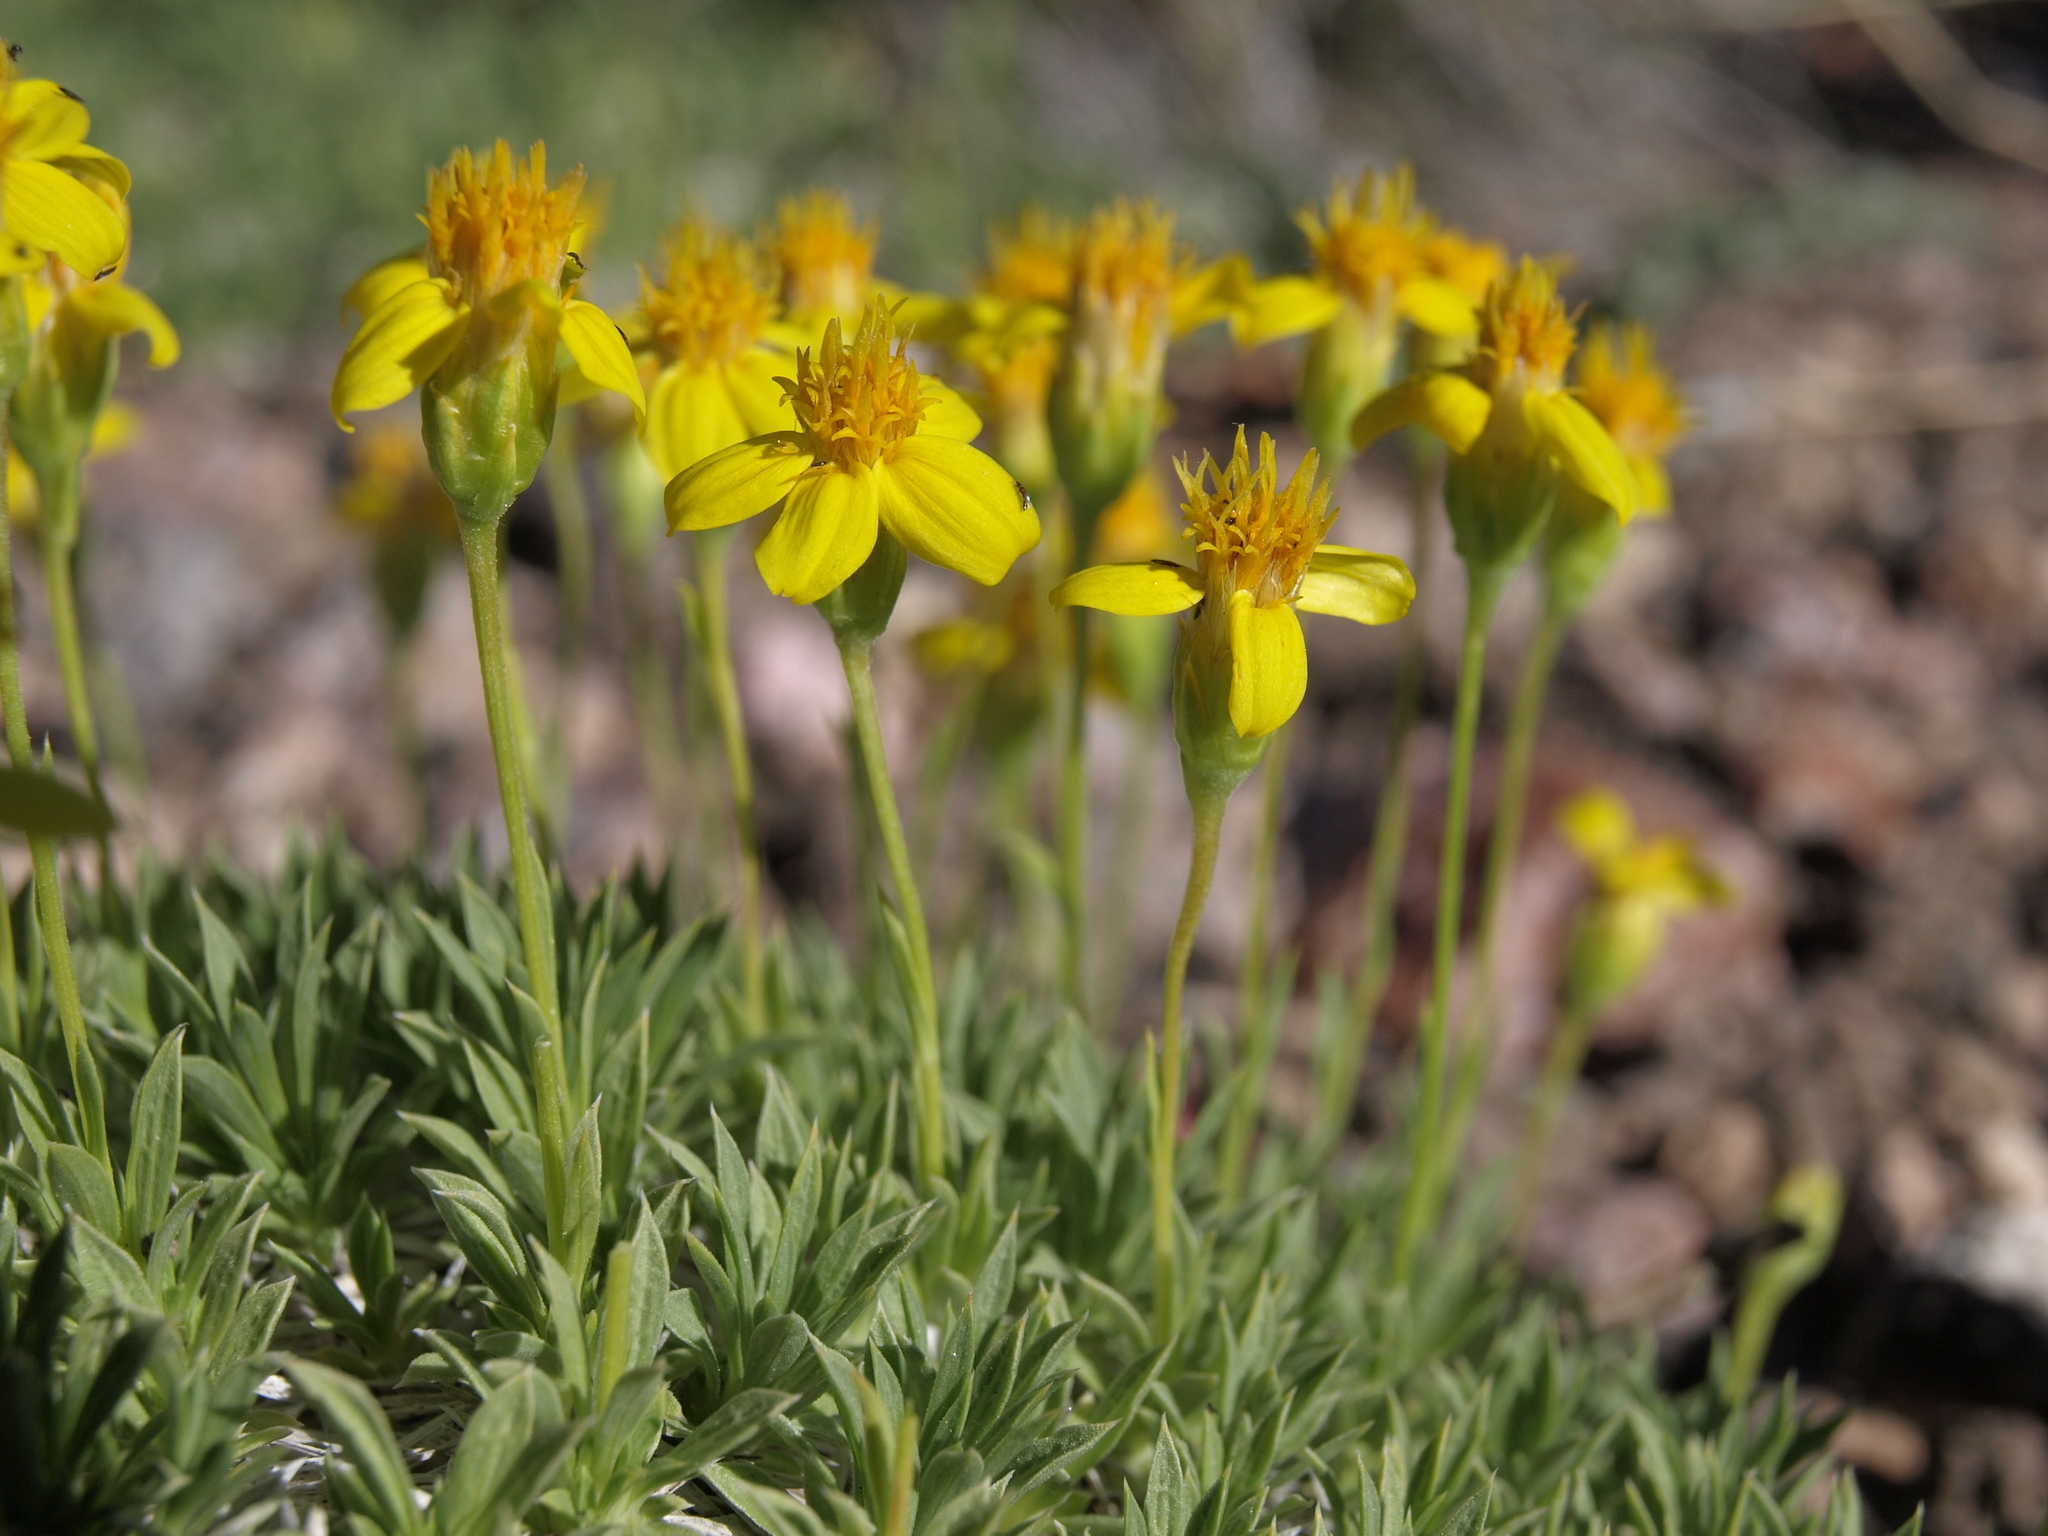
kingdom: Plantae
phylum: Tracheophyta
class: Magnoliopsida
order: Asterales
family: Asteraceae
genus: Stenotus
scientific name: Stenotus acaulis
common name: Stemless goldenweed
